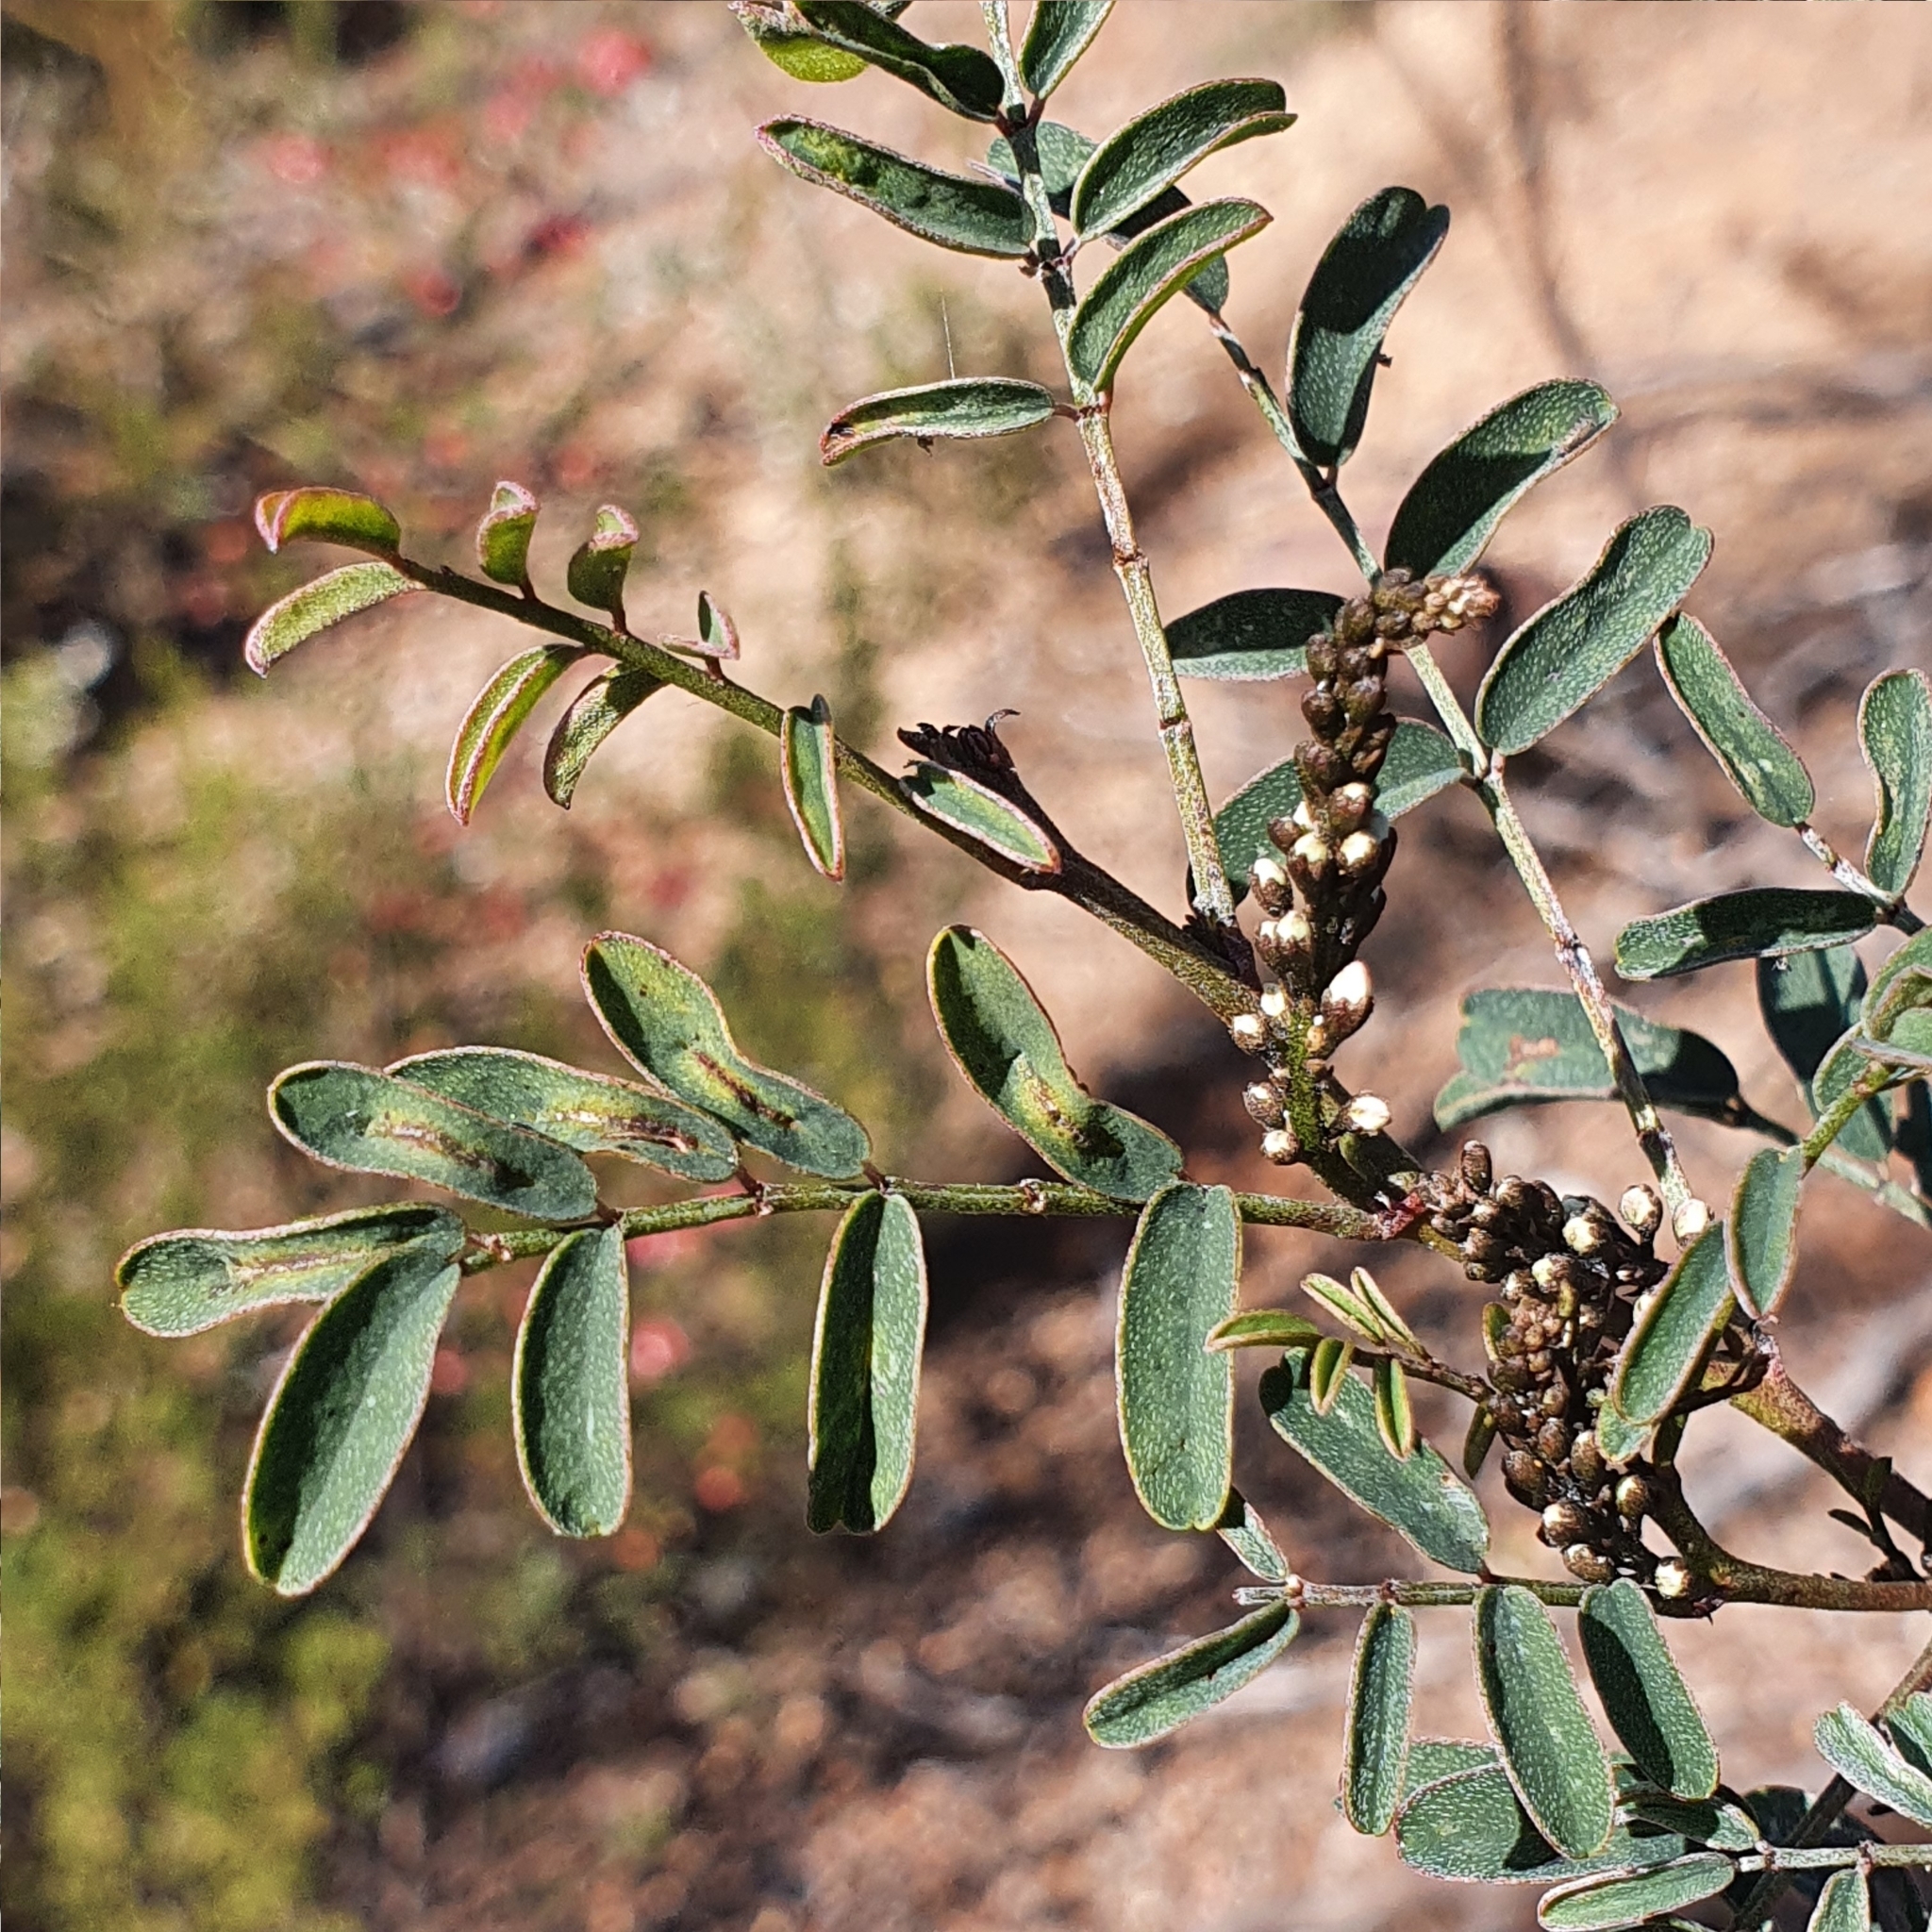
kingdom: Plantae
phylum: Tracheophyta
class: Magnoliopsida
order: Fabales
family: Fabaceae
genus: Indigofera
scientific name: Indigofera australis
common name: Australian indigo
